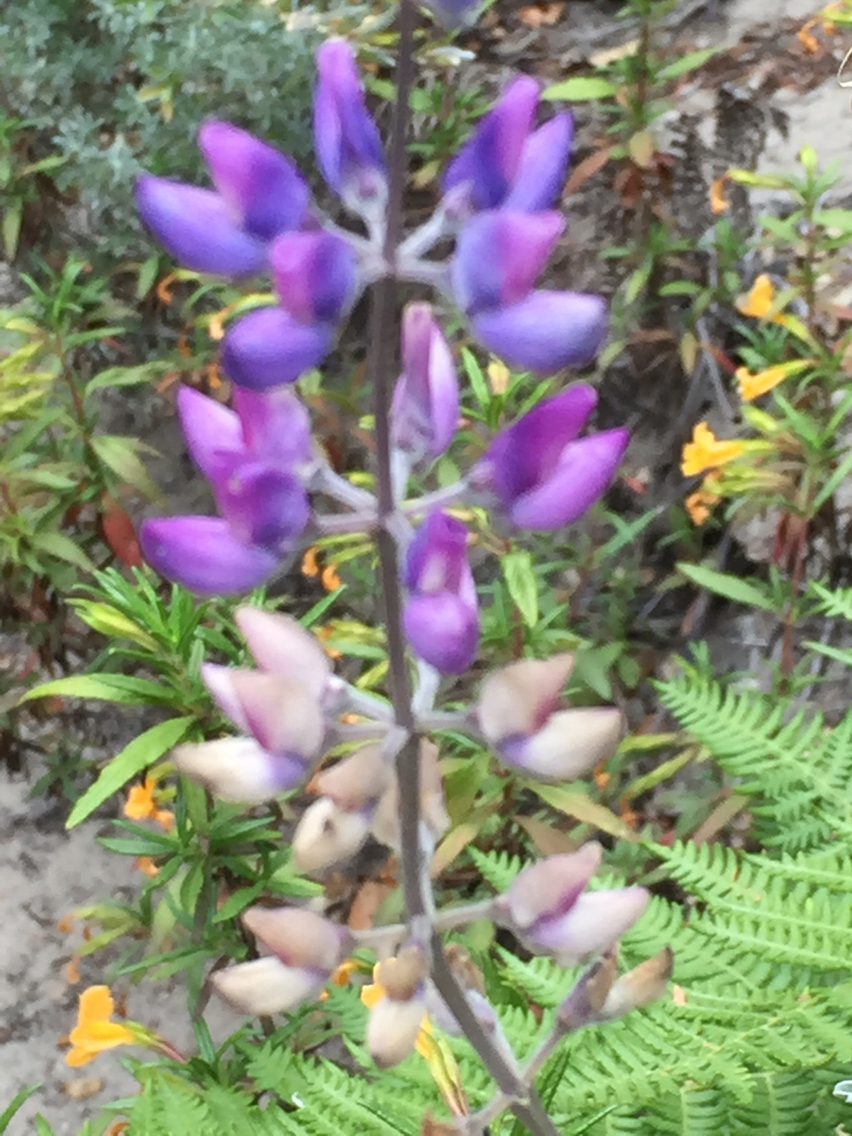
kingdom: Plantae
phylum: Tracheophyta
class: Magnoliopsida
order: Fabales
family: Fabaceae
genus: Lupinus
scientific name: Lupinus albifrons
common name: Foothill lupine
